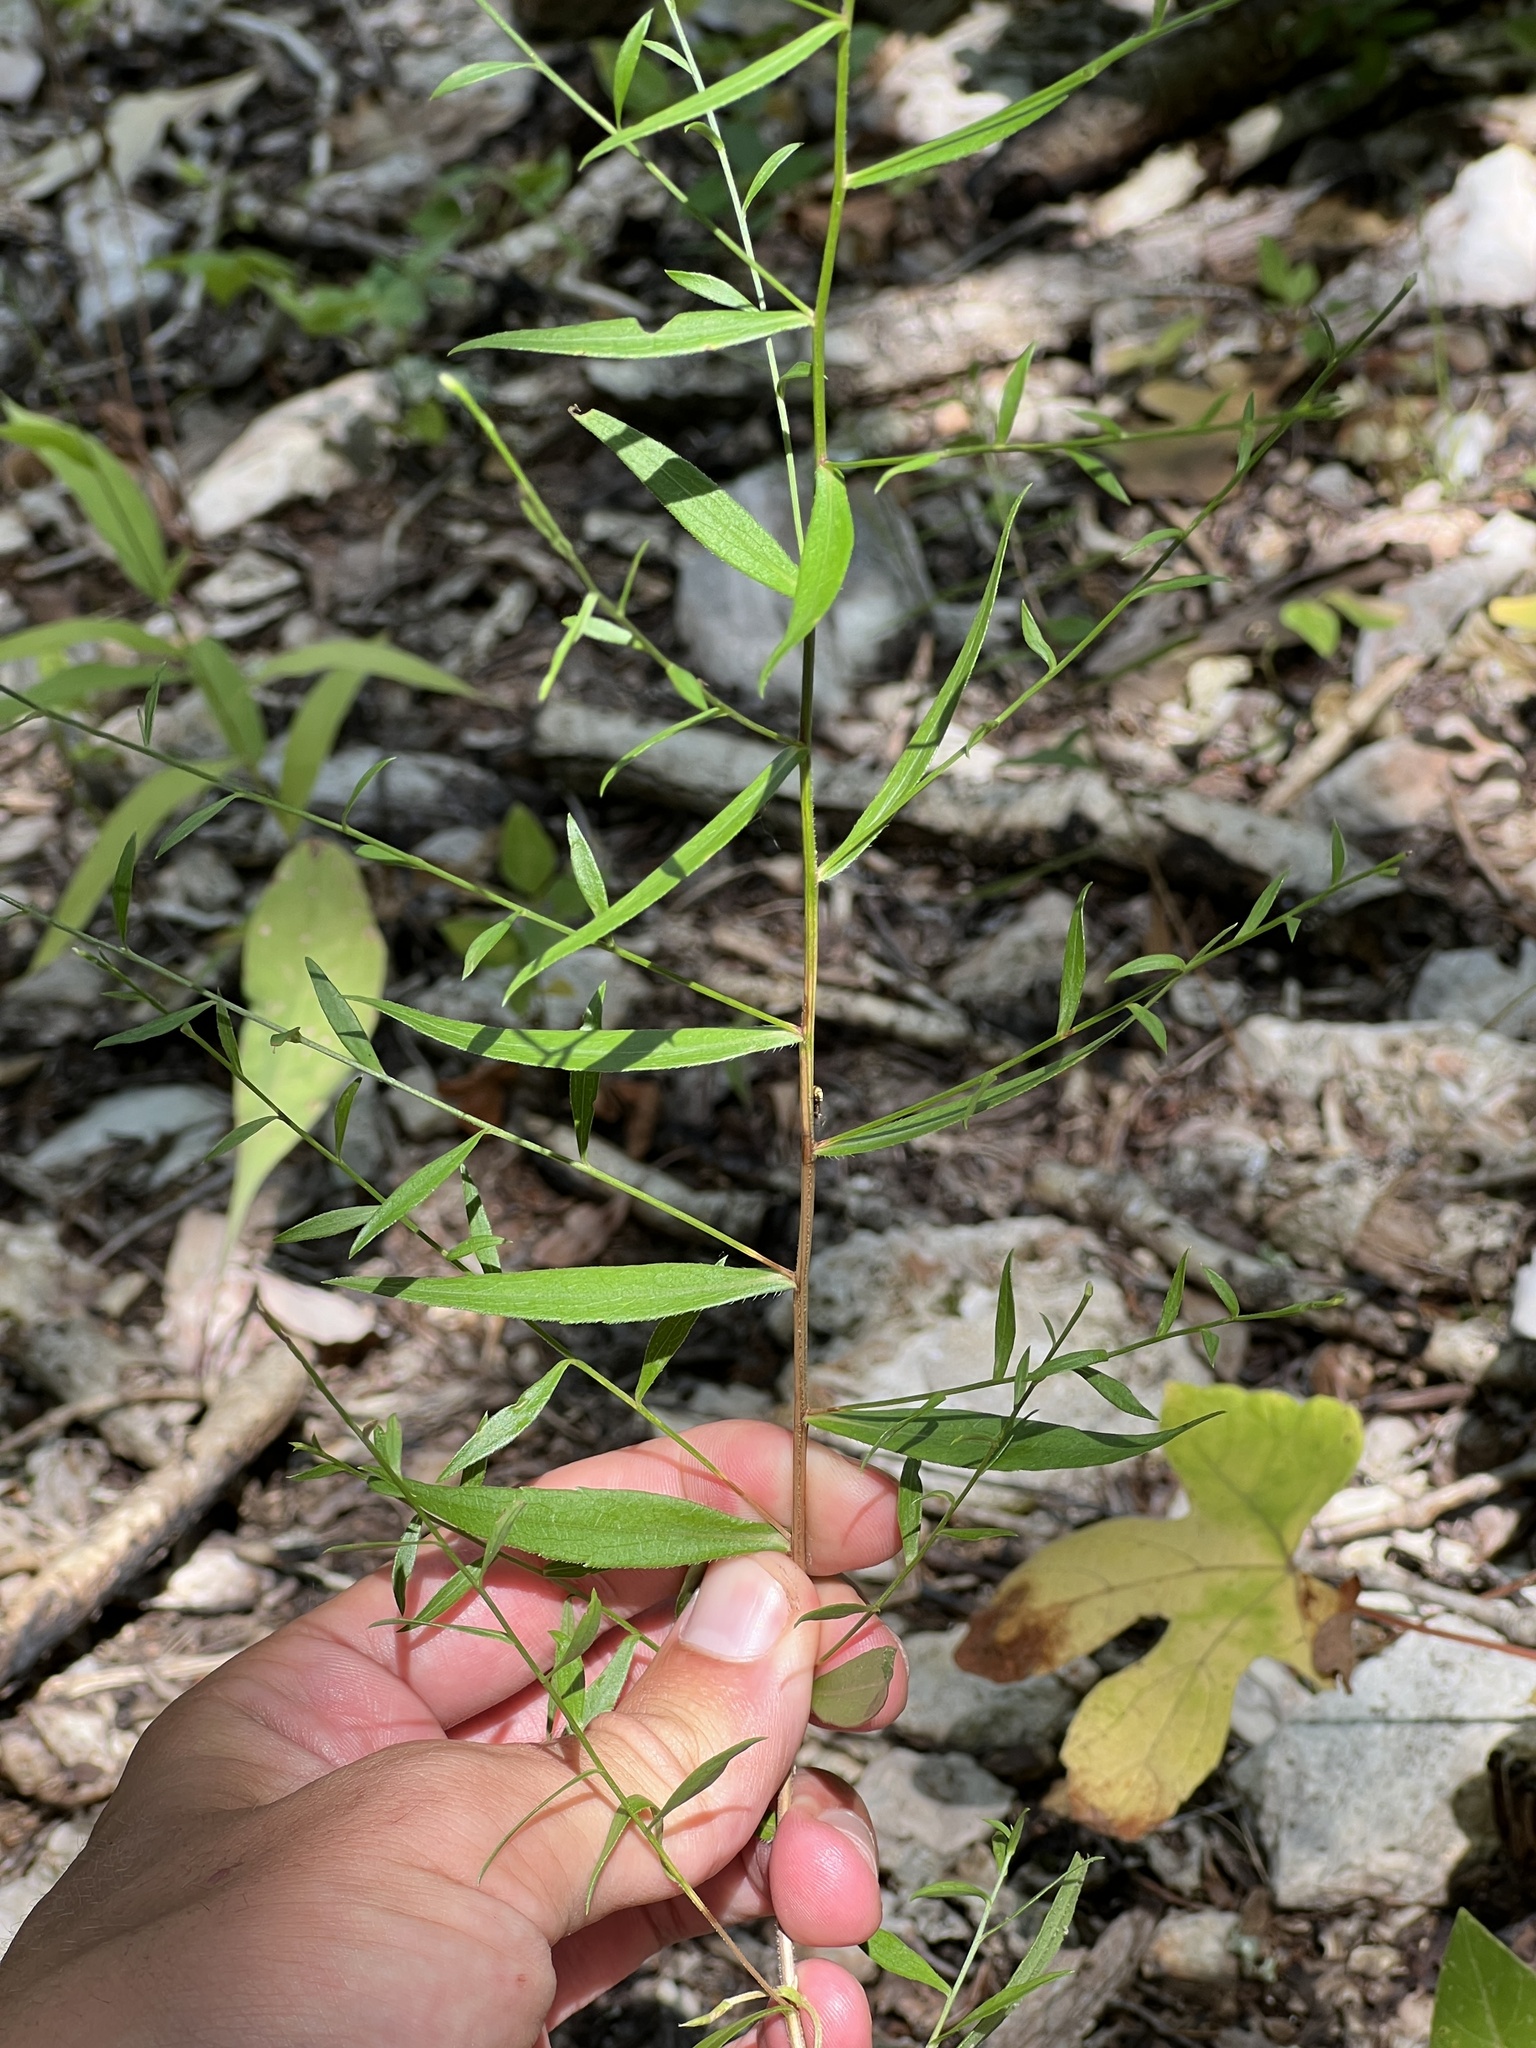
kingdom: Plantae
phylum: Tracheophyta
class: Magnoliopsida
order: Asterales
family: Asteraceae
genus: Symphyotrichum
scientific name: Symphyotrichum turbinellum
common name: Prairie aster
